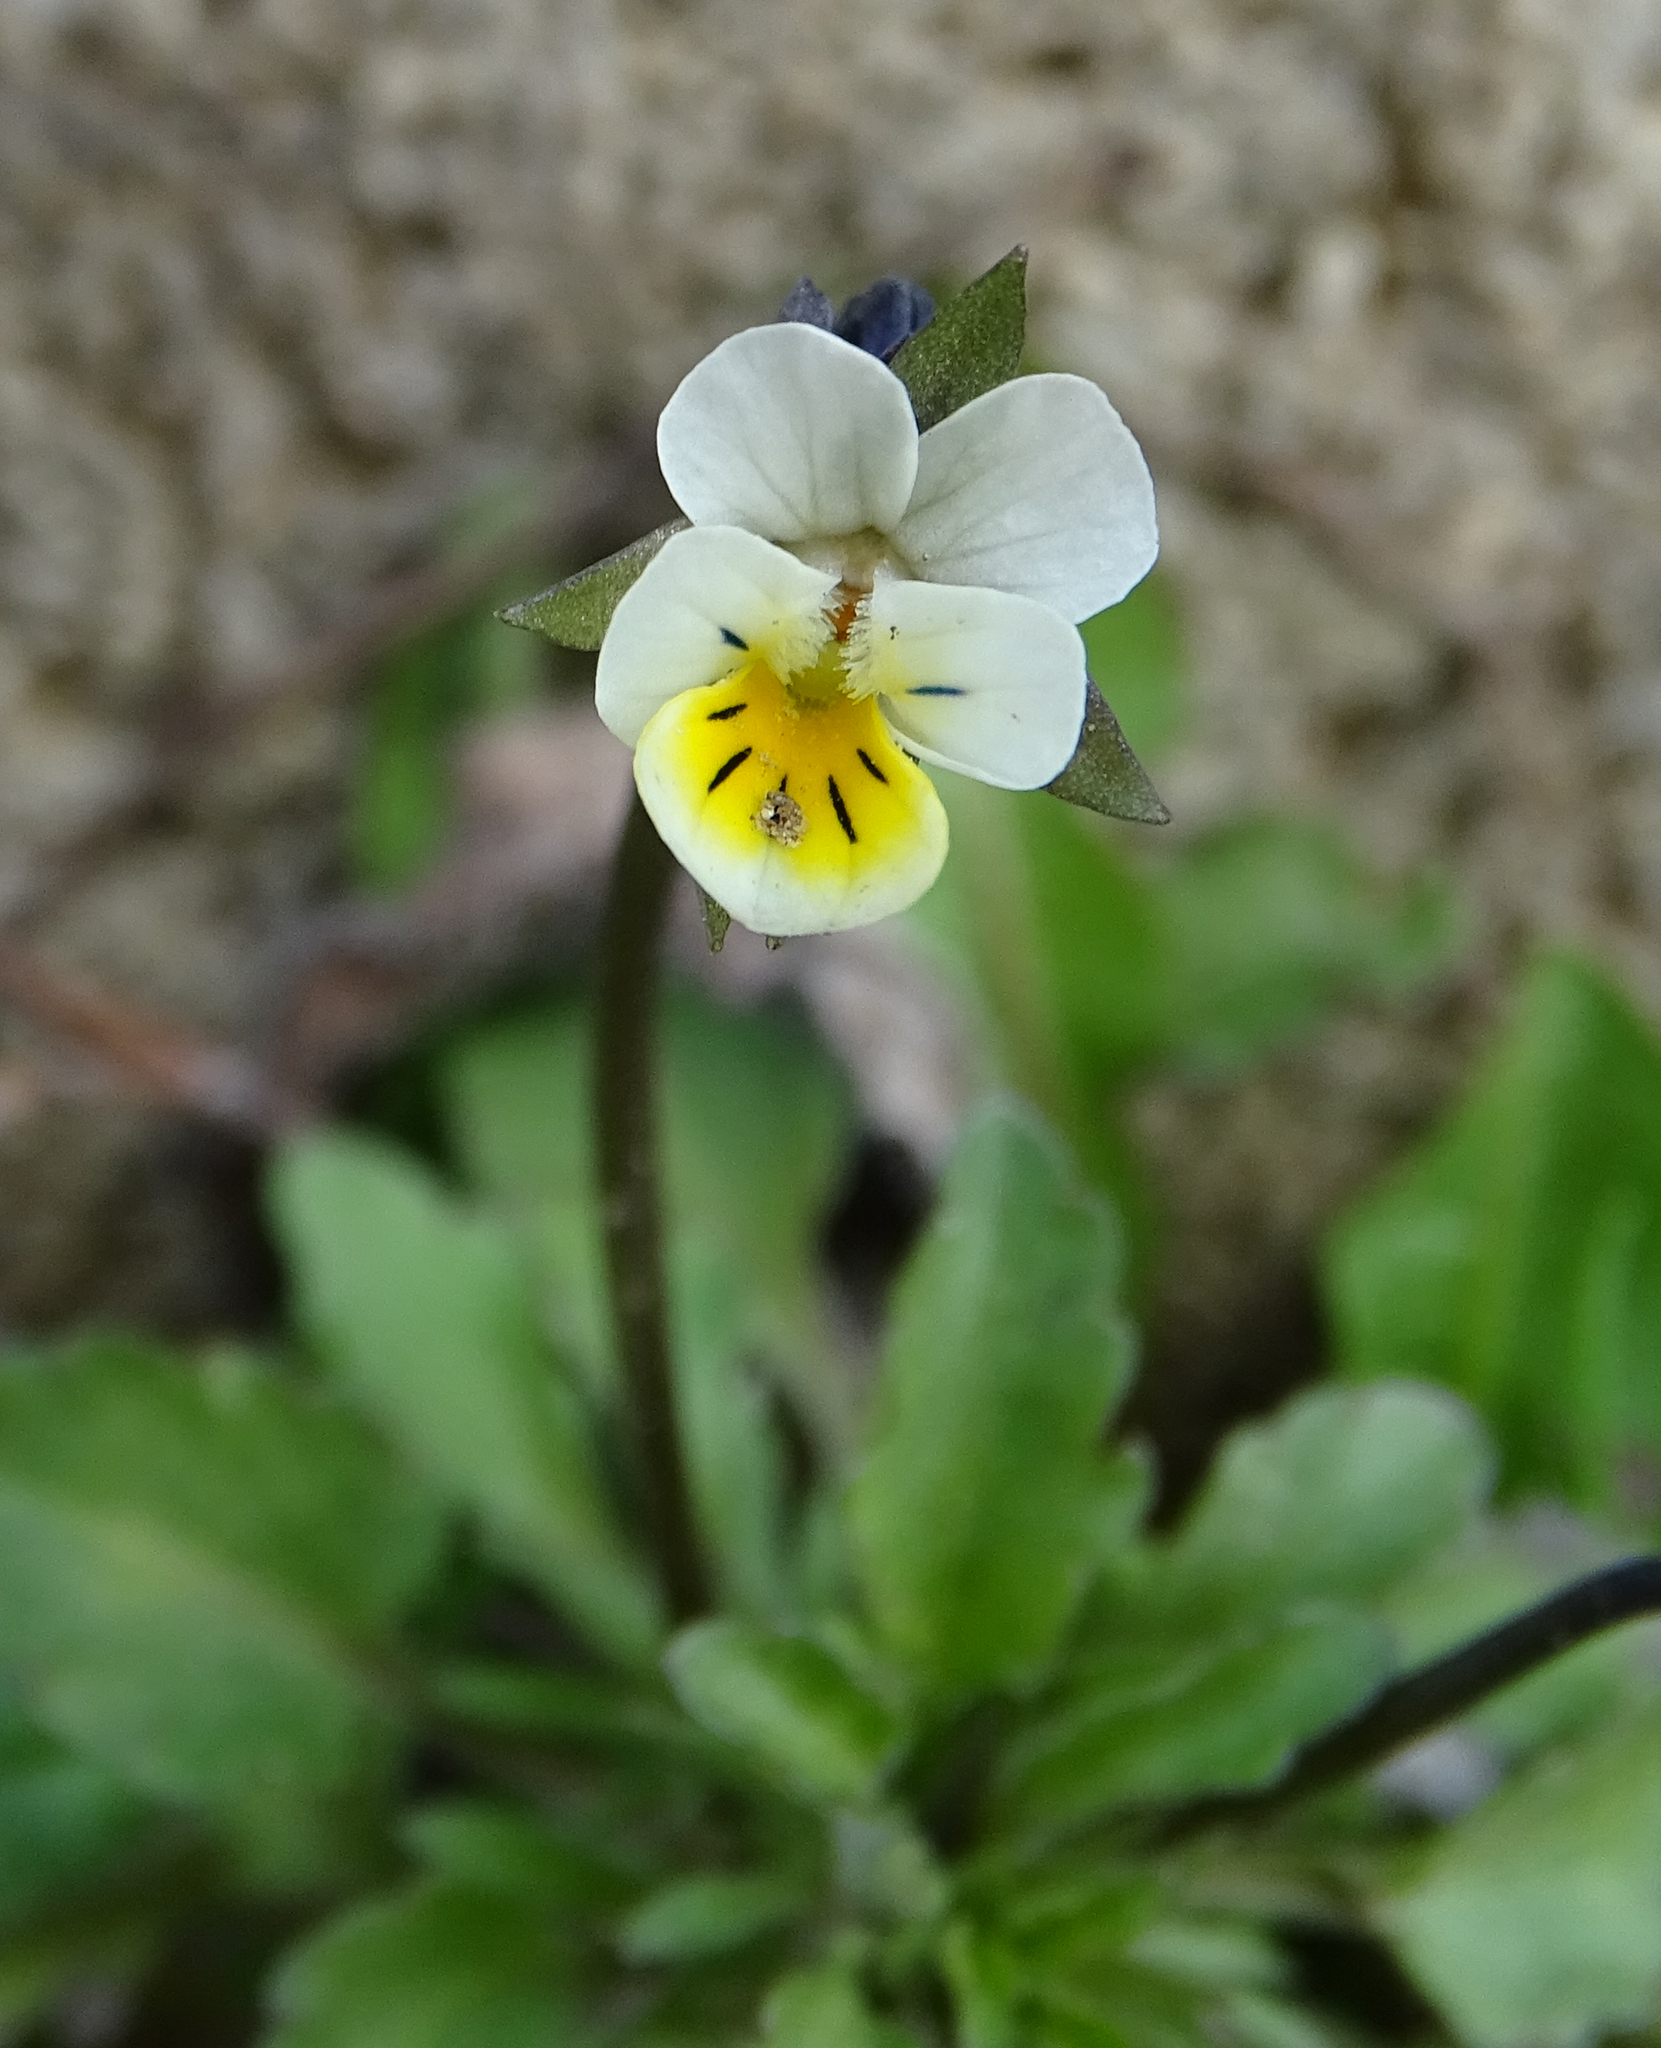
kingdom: Plantae
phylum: Tracheophyta
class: Magnoliopsida
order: Malpighiales
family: Violaceae
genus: Viola
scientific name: Viola arvensis
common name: Field pansy
